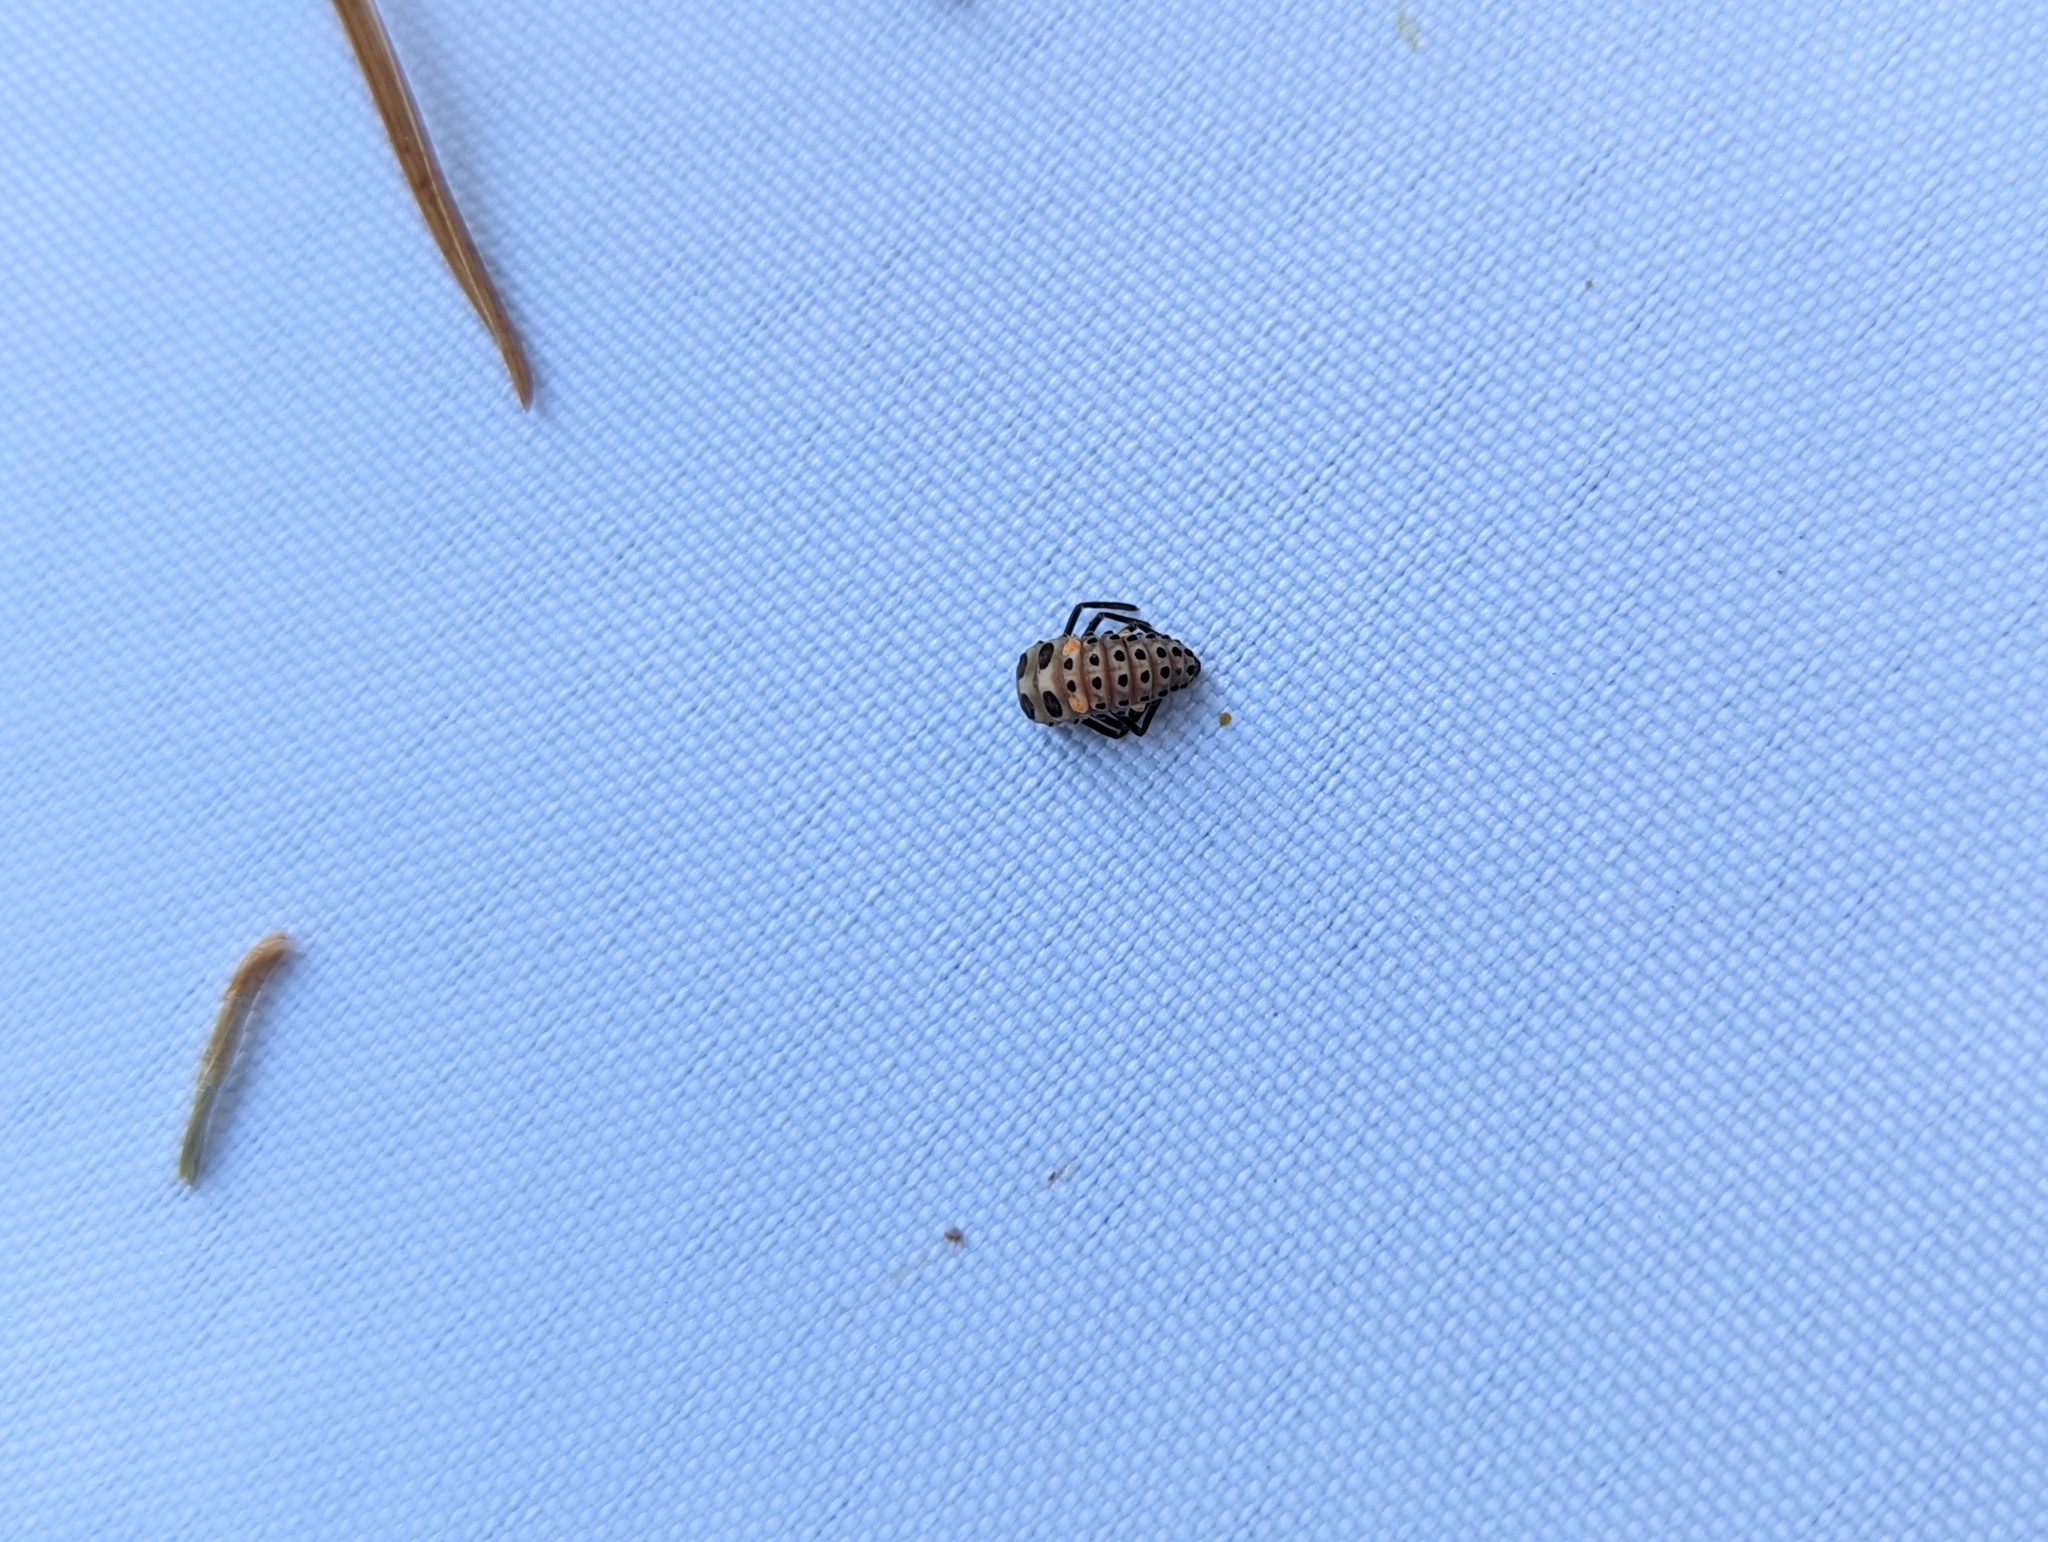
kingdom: Animalia
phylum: Arthropoda
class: Insecta
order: Coleoptera
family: Coccinellidae
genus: Myzia
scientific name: Myzia oblongoguttata
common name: Striped ladybird
